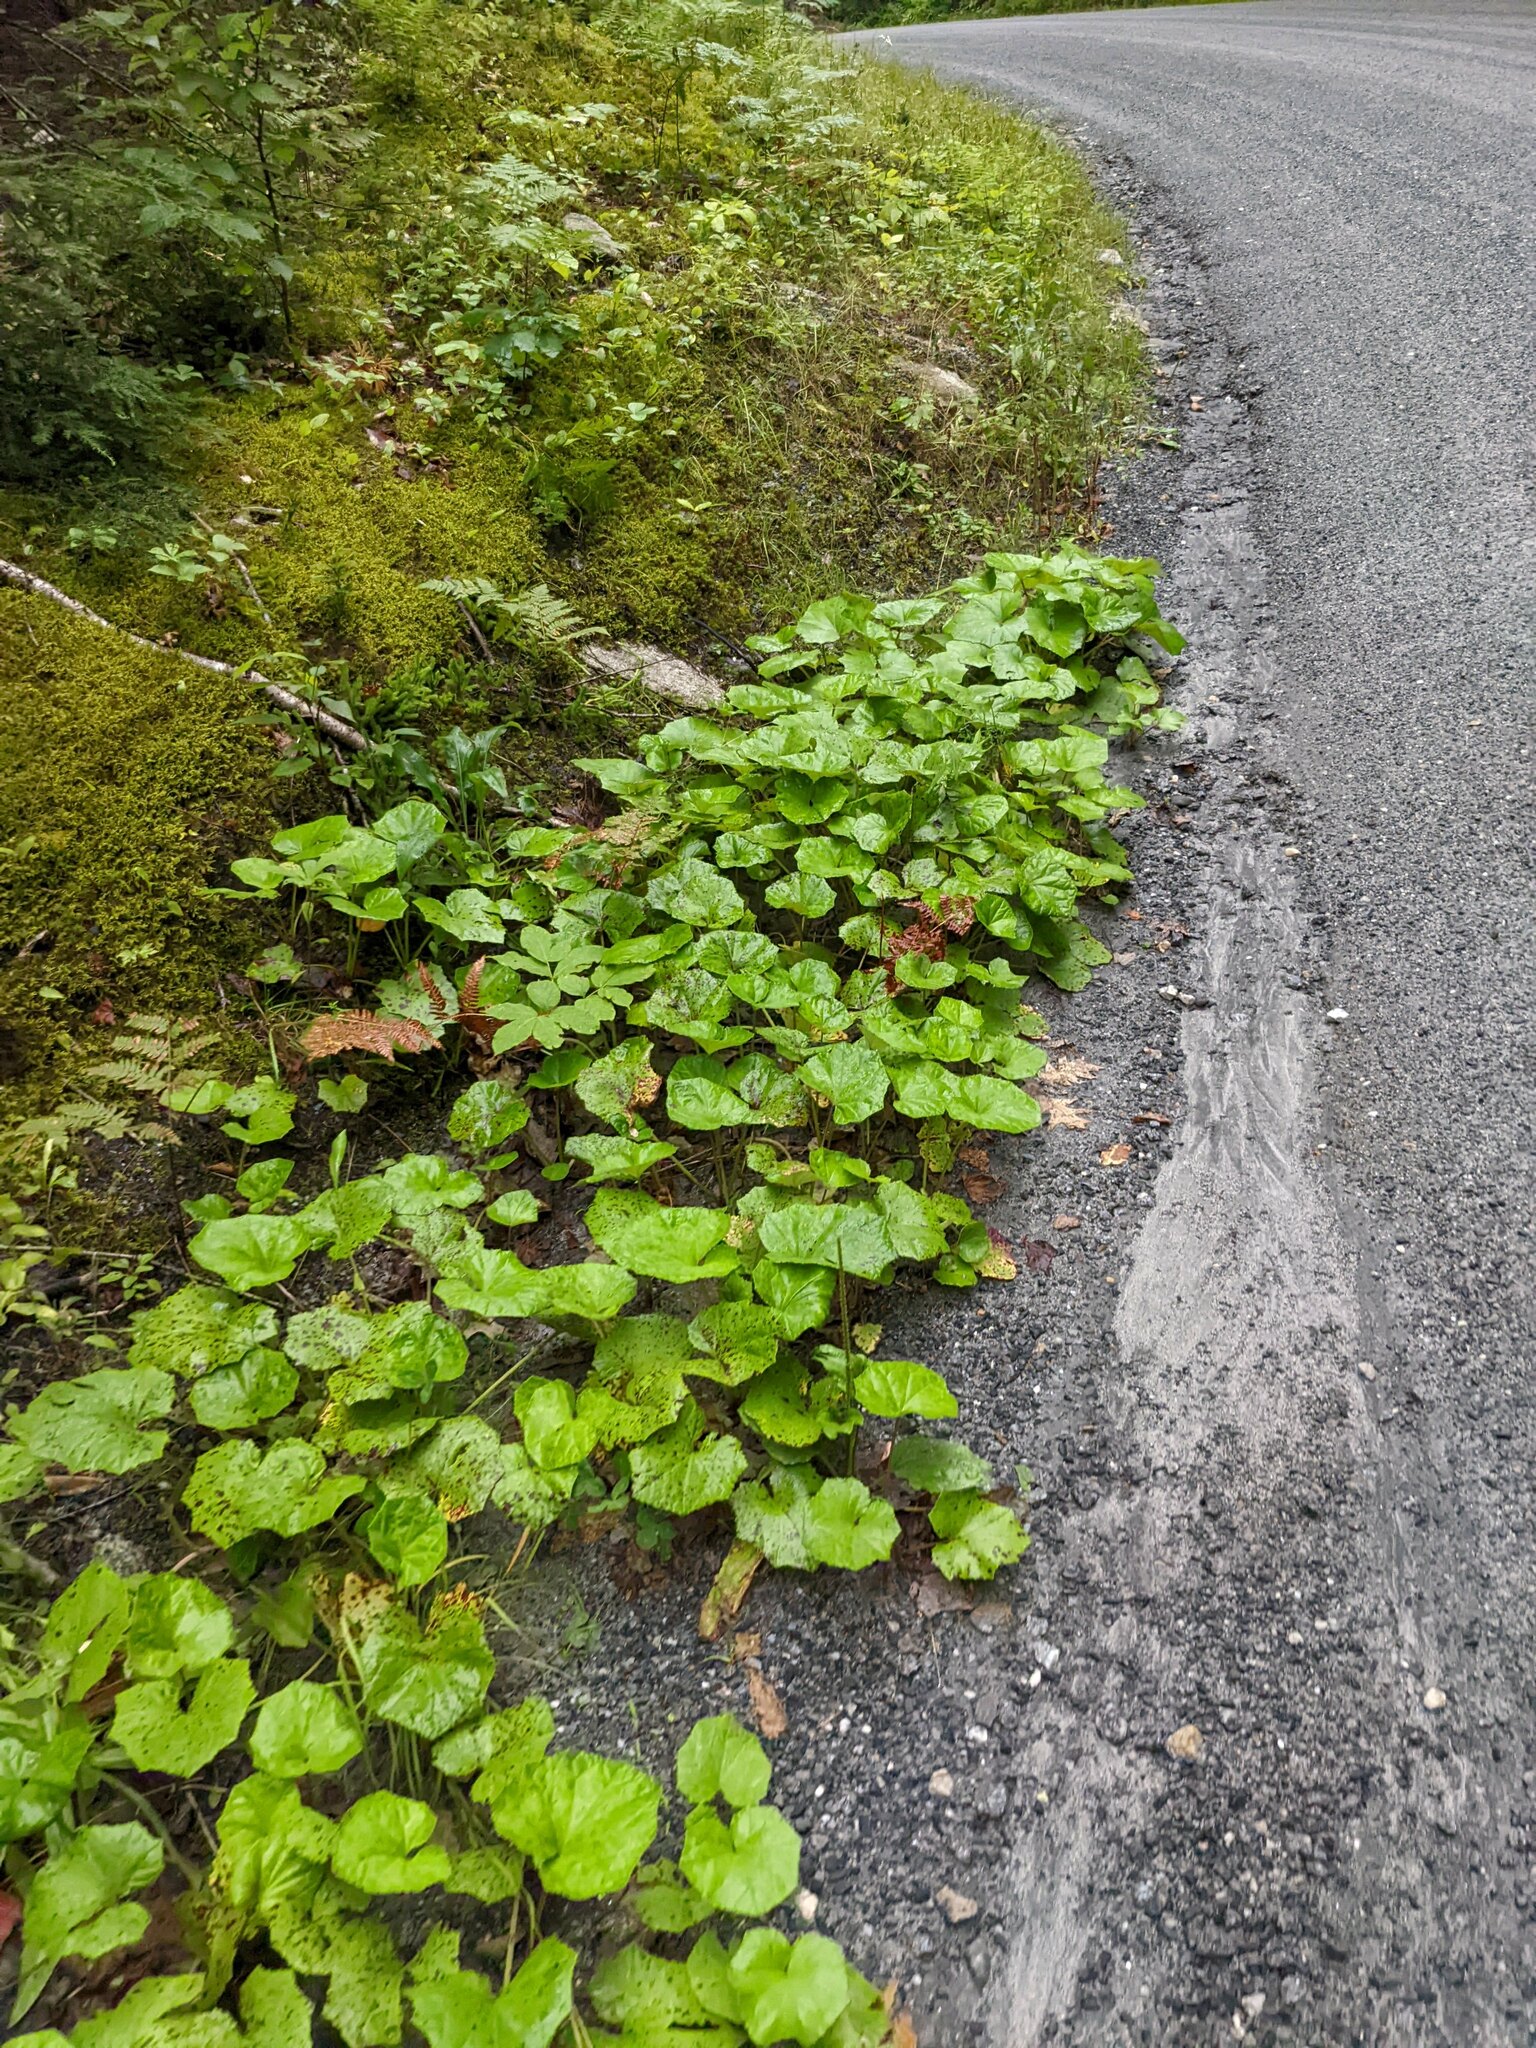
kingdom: Plantae
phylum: Tracheophyta
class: Magnoliopsida
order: Asterales
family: Asteraceae
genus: Tussilago
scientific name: Tussilago farfara
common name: Coltsfoot
